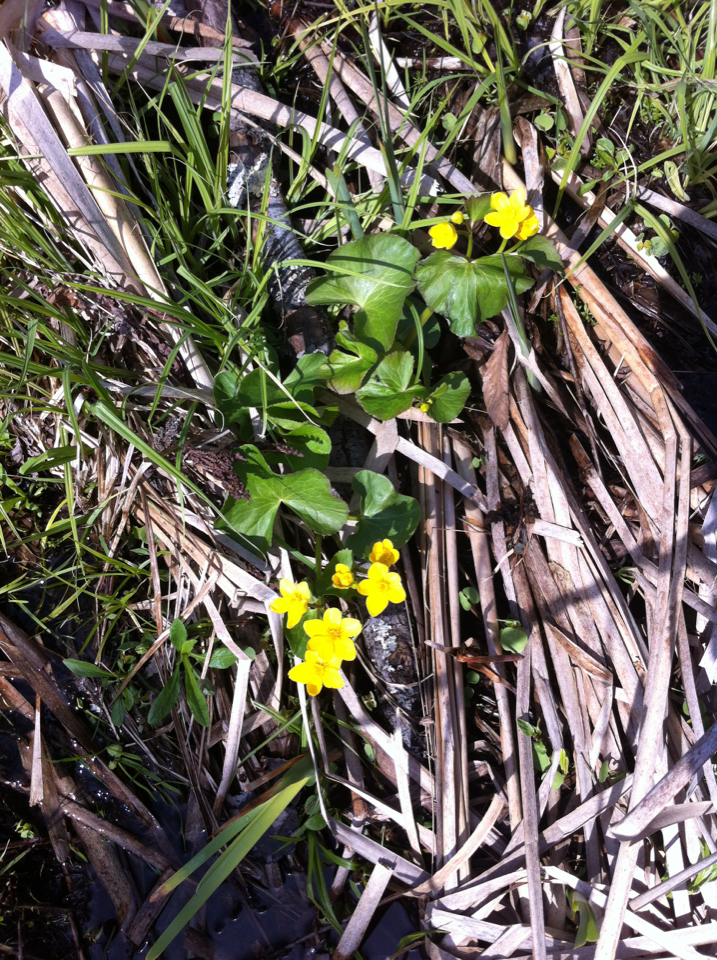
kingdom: Plantae
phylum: Tracheophyta
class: Magnoliopsida
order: Ranunculales
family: Ranunculaceae
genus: Caltha
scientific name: Caltha palustris
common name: Marsh marigold
